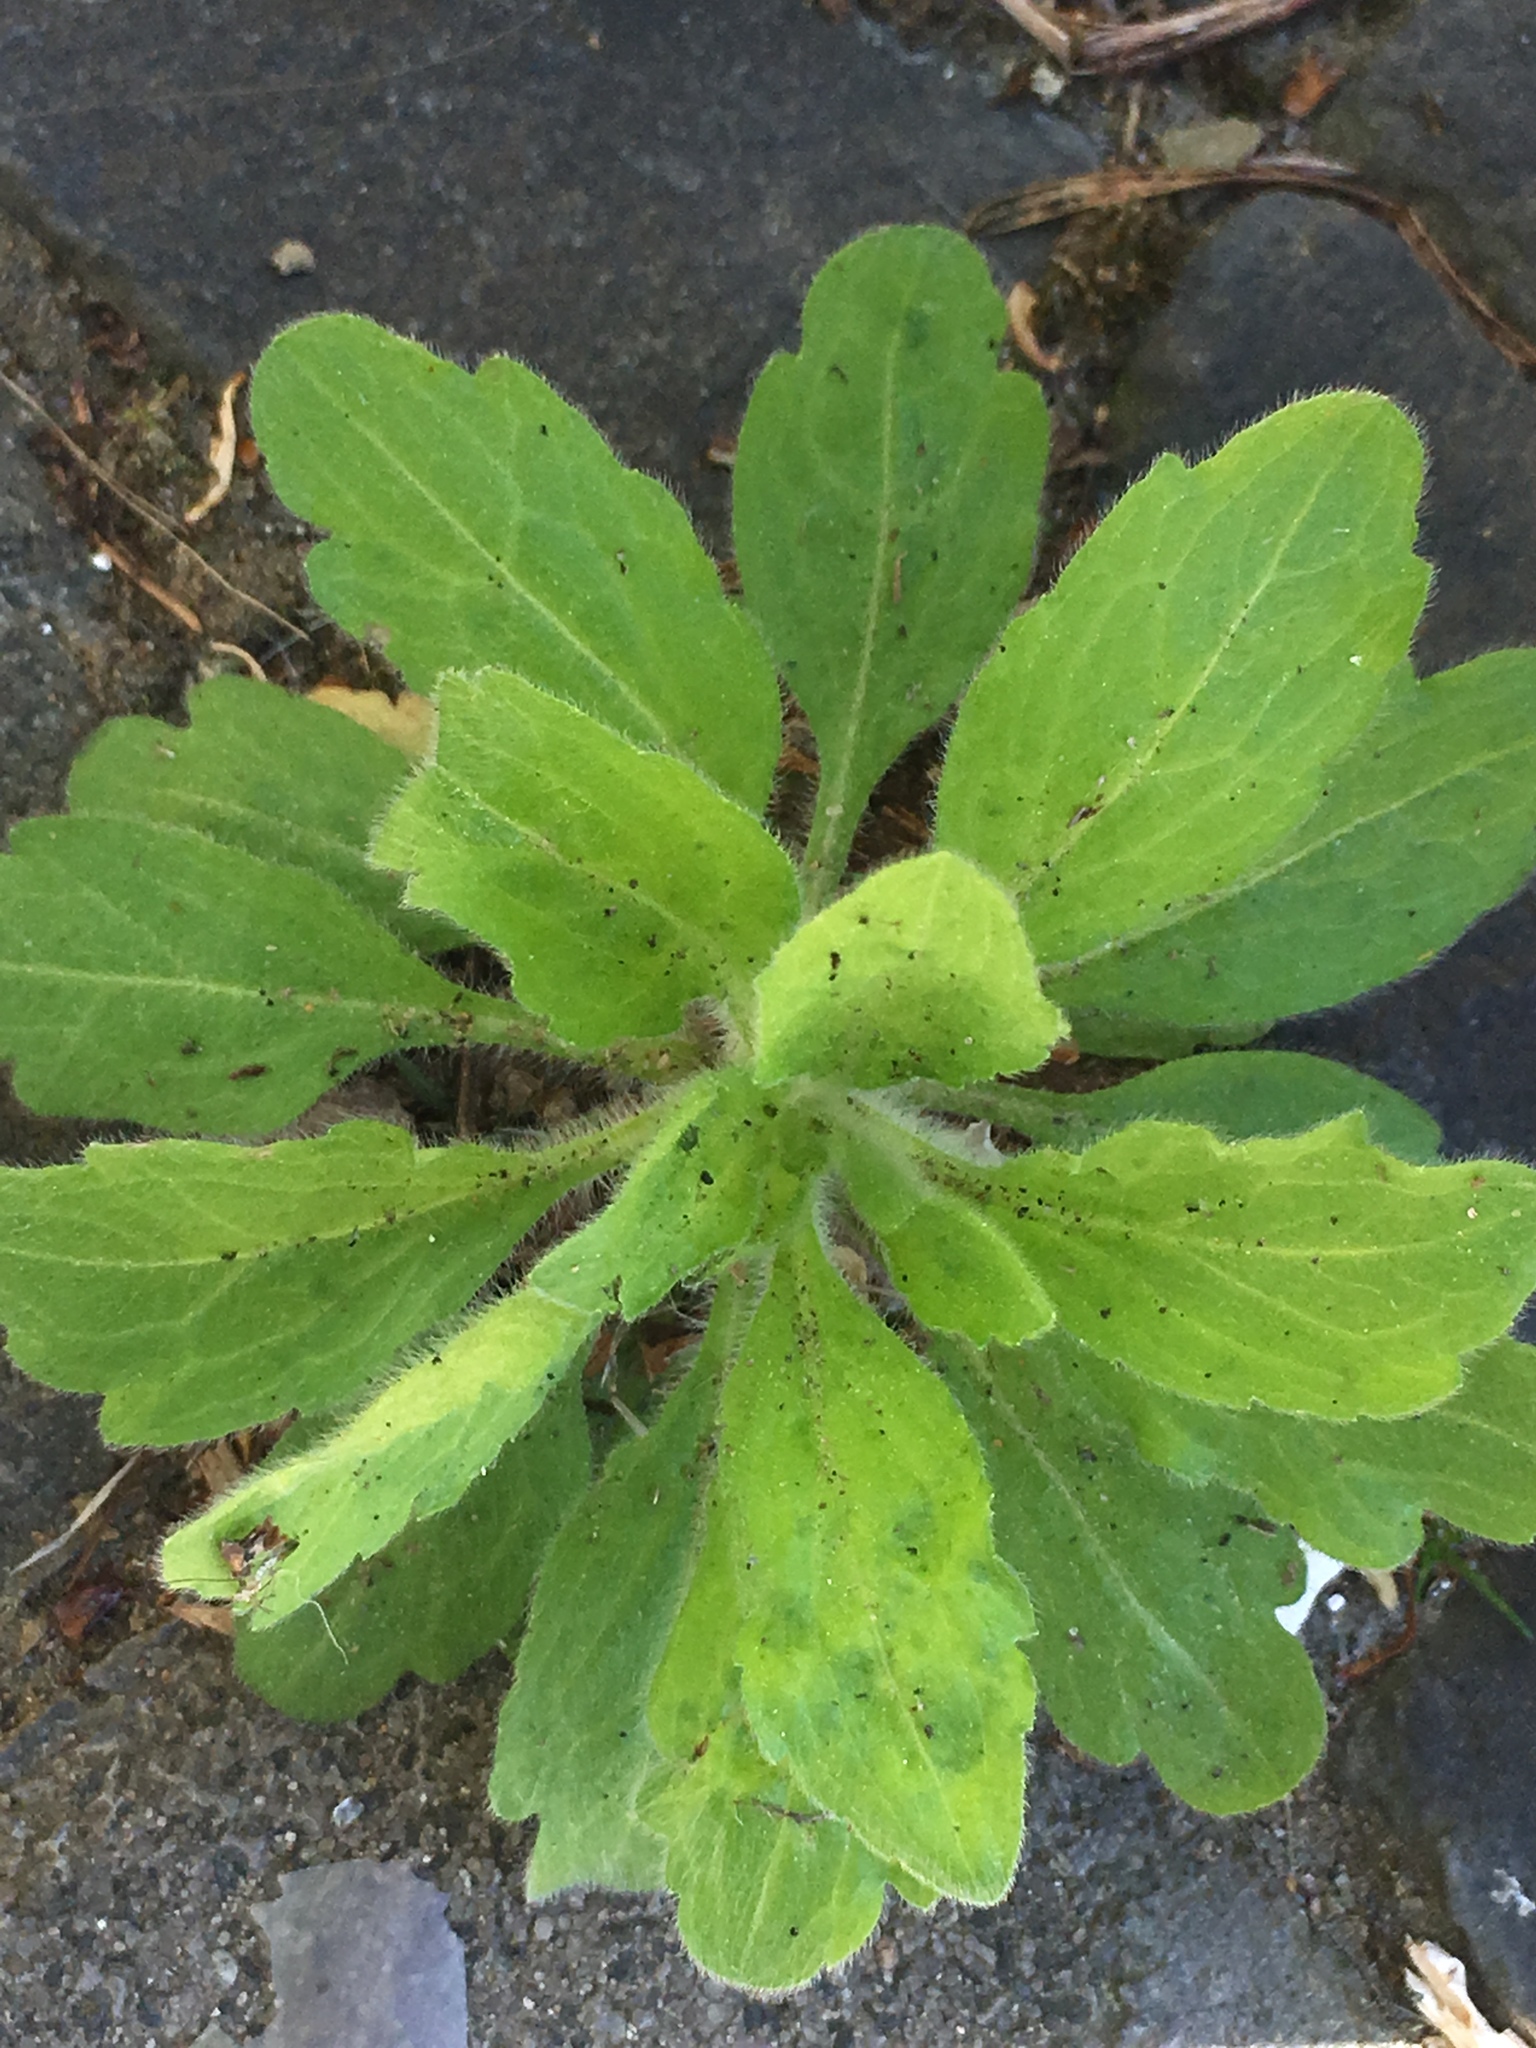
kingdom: Plantae
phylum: Tracheophyta
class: Magnoliopsida
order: Asterales
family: Asteraceae
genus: Erigeron
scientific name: Erigeron annuus
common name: Tall fleabane
